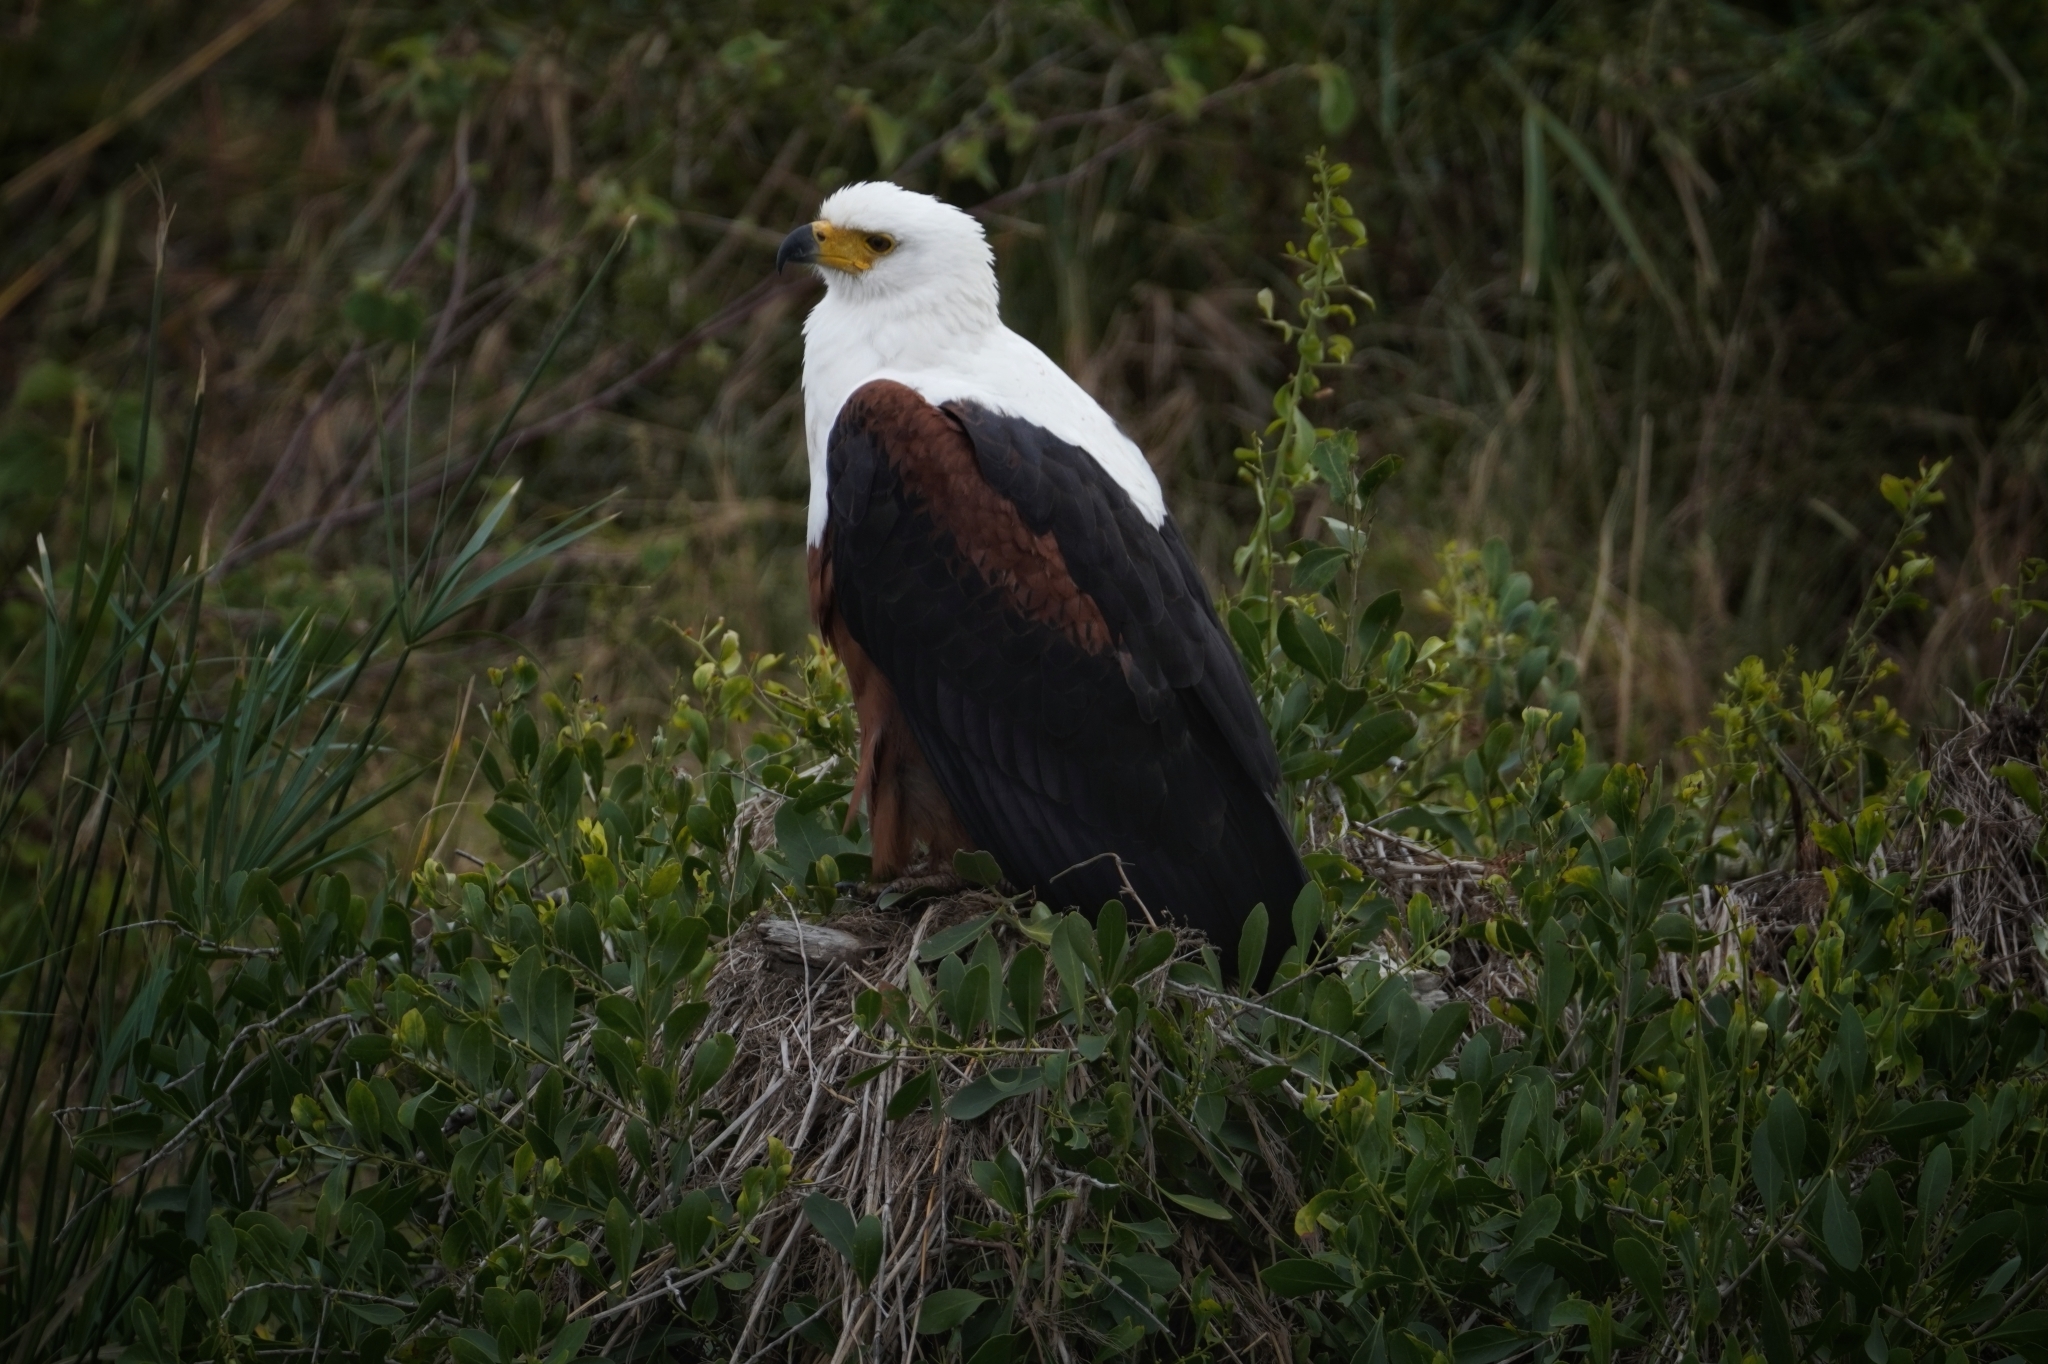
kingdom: Animalia
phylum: Chordata
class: Aves
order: Accipitriformes
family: Accipitridae
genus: Haliaeetus
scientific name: Haliaeetus vocifer
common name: African fish eagle
